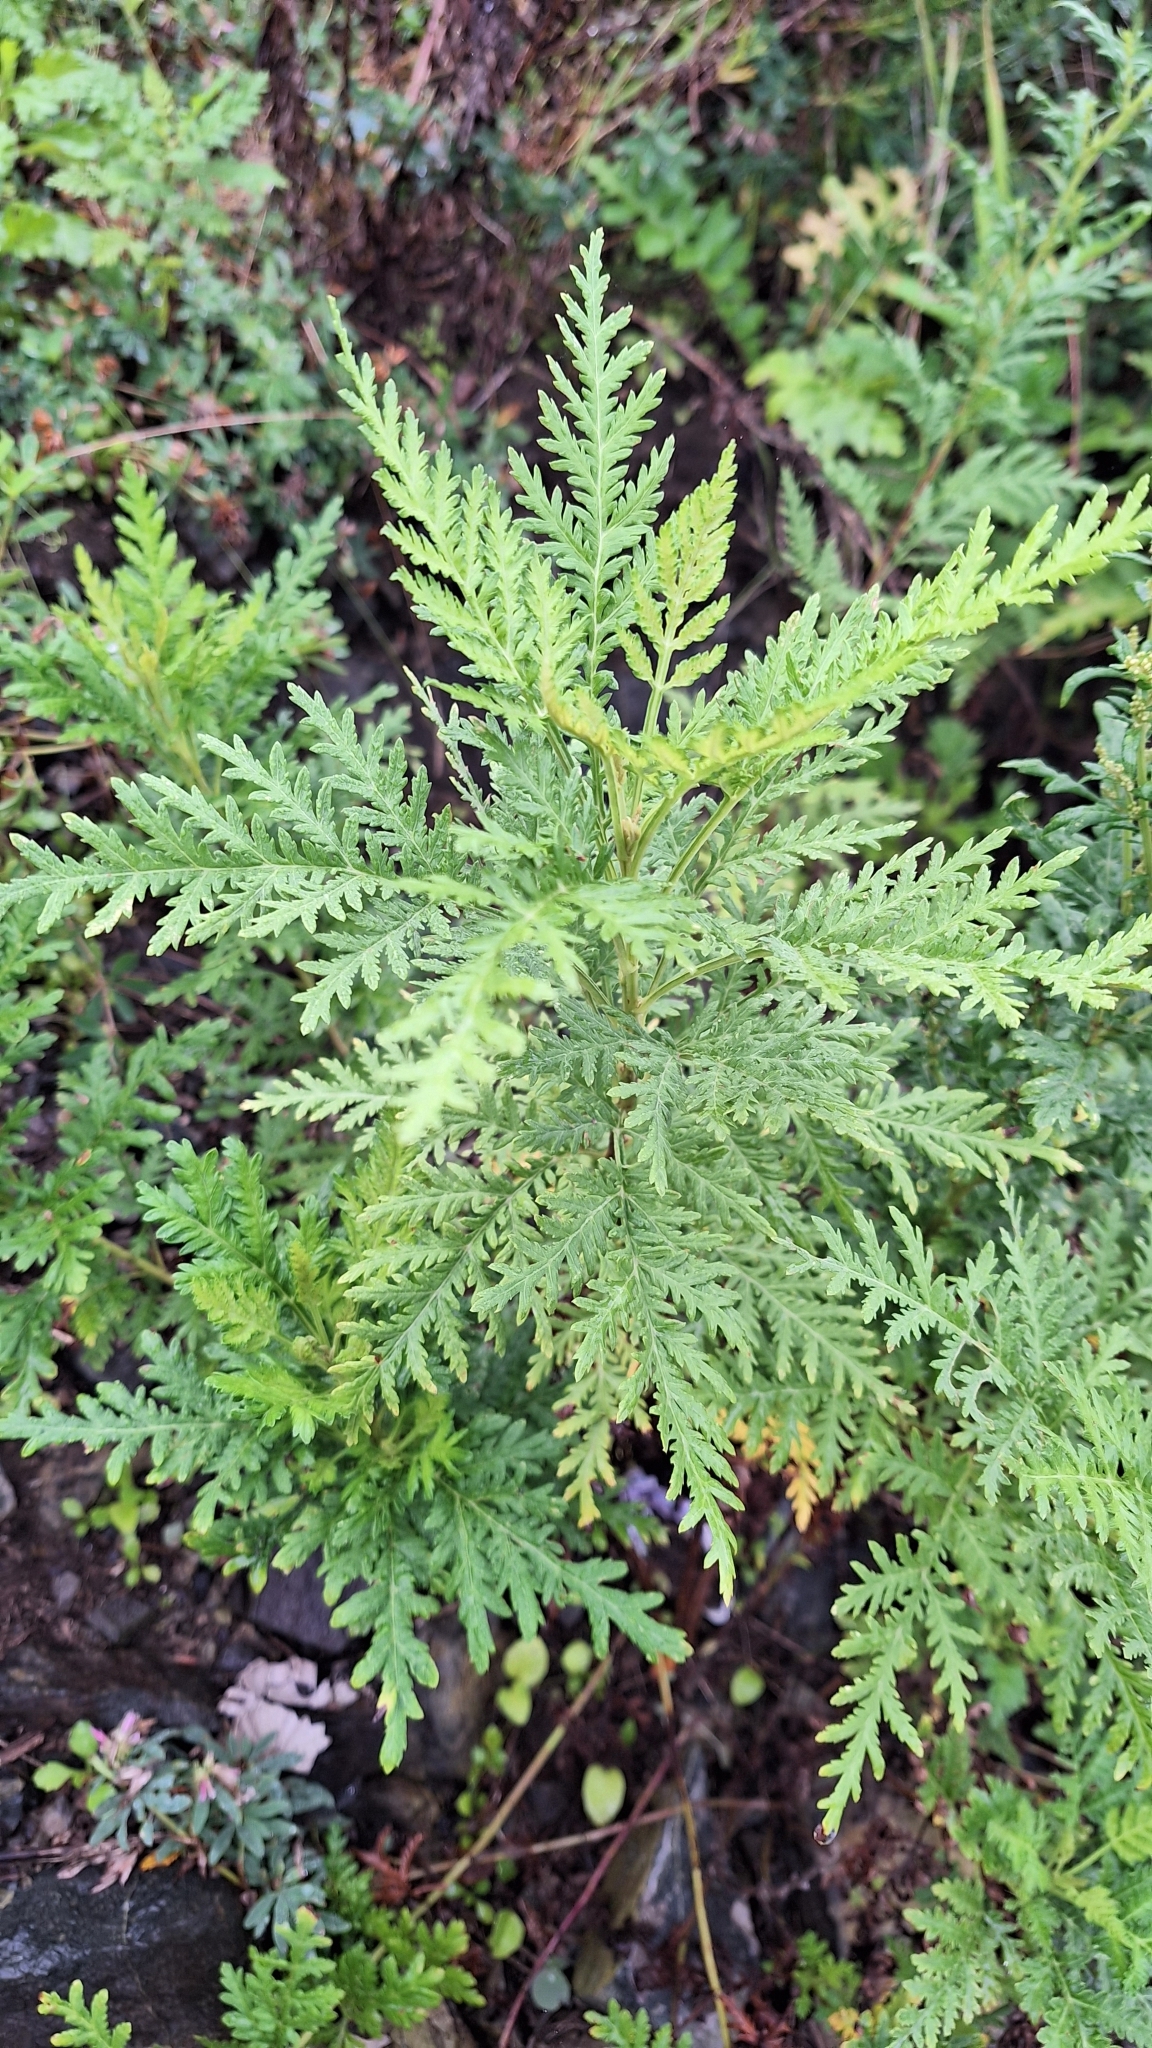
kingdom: Plantae
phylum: Tracheophyta
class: Magnoliopsida
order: Asterales
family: Asteraceae
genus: Artemisia
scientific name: Artemisia gmelinii
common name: Gmelin's wormwood
